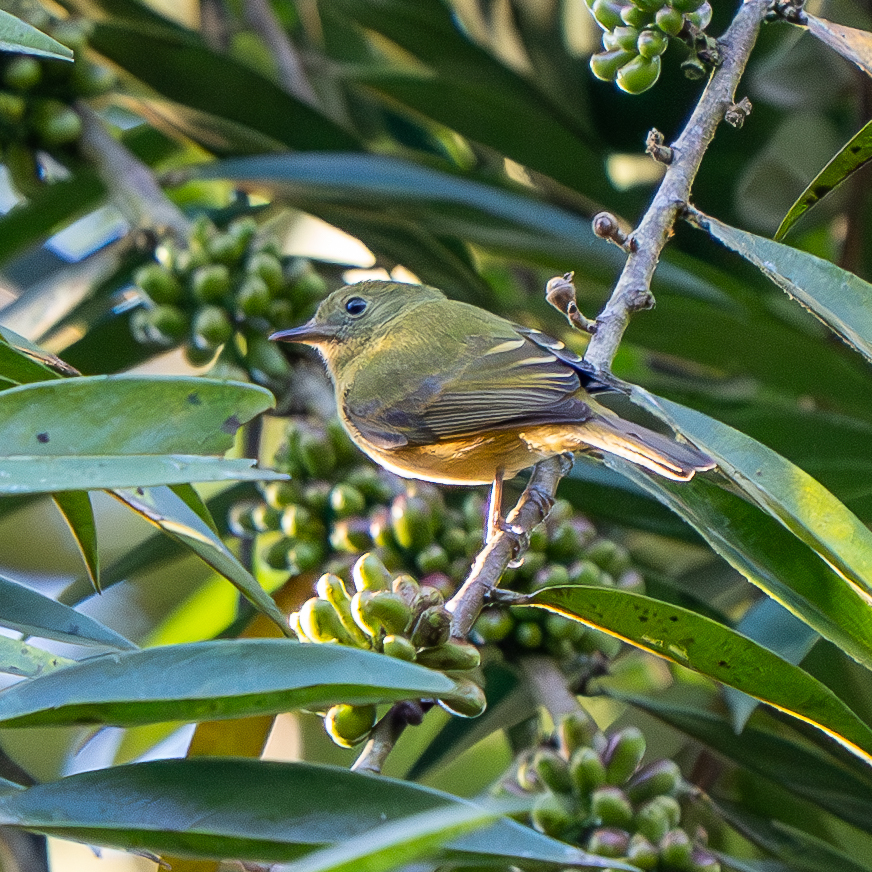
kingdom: Animalia
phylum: Chordata
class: Aves
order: Passeriformes
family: Tyrannidae
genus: Mionectes
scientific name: Mionectes oleagineus
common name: Ochre-bellied flycatcher
